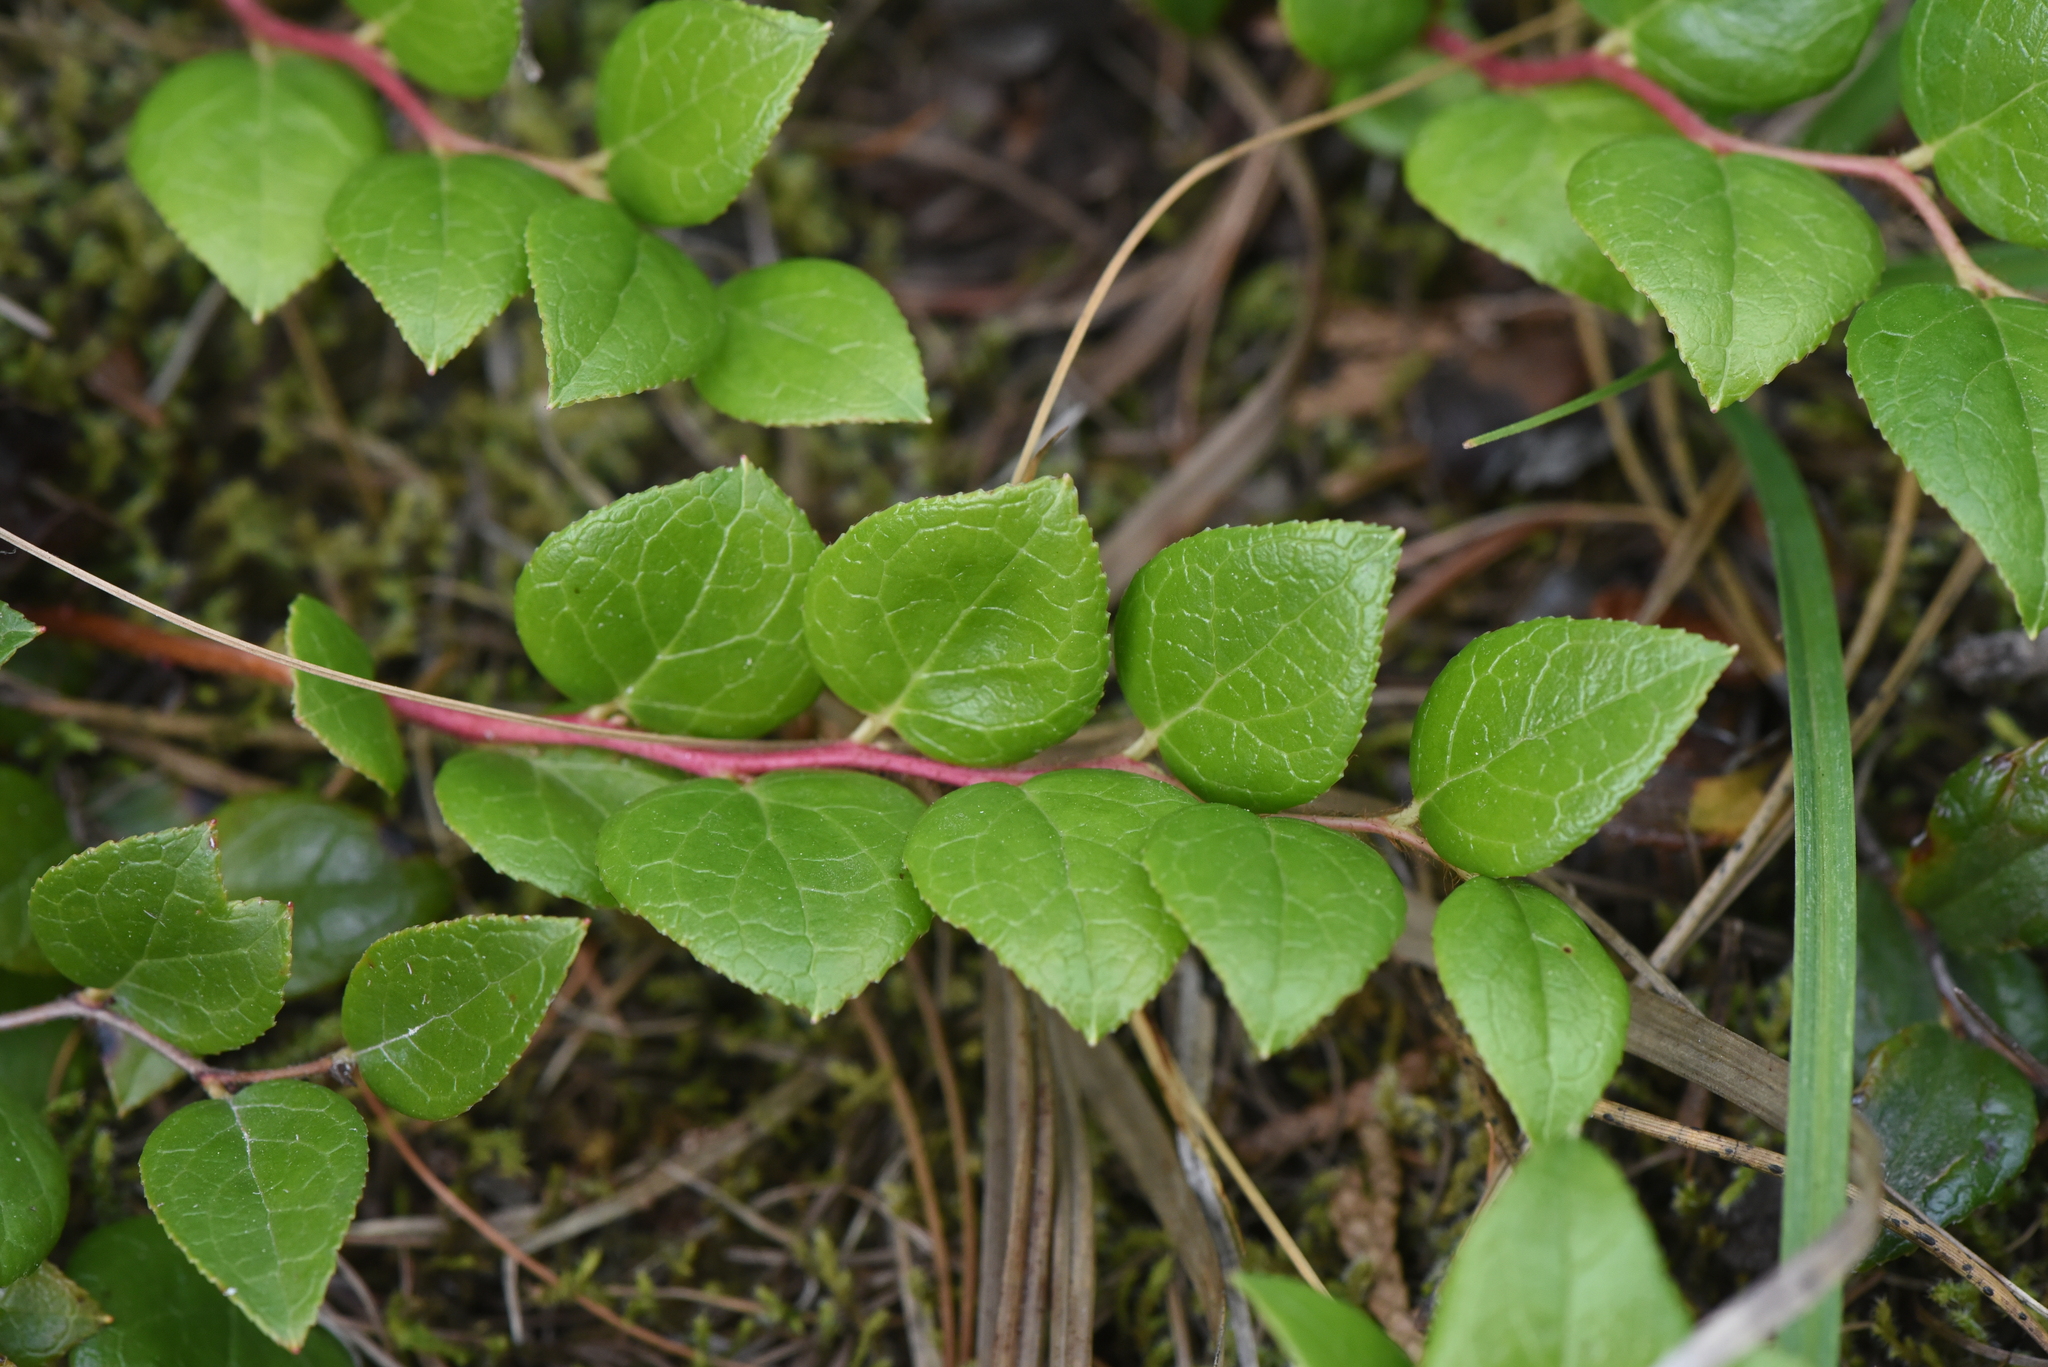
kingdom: Plantae
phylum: Tracheophyta
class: Magnoliopsida
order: Ericales
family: Ericaceae
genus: Gaultheria
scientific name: Gaultheria ovatifolia
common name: Oregon wintergreen
